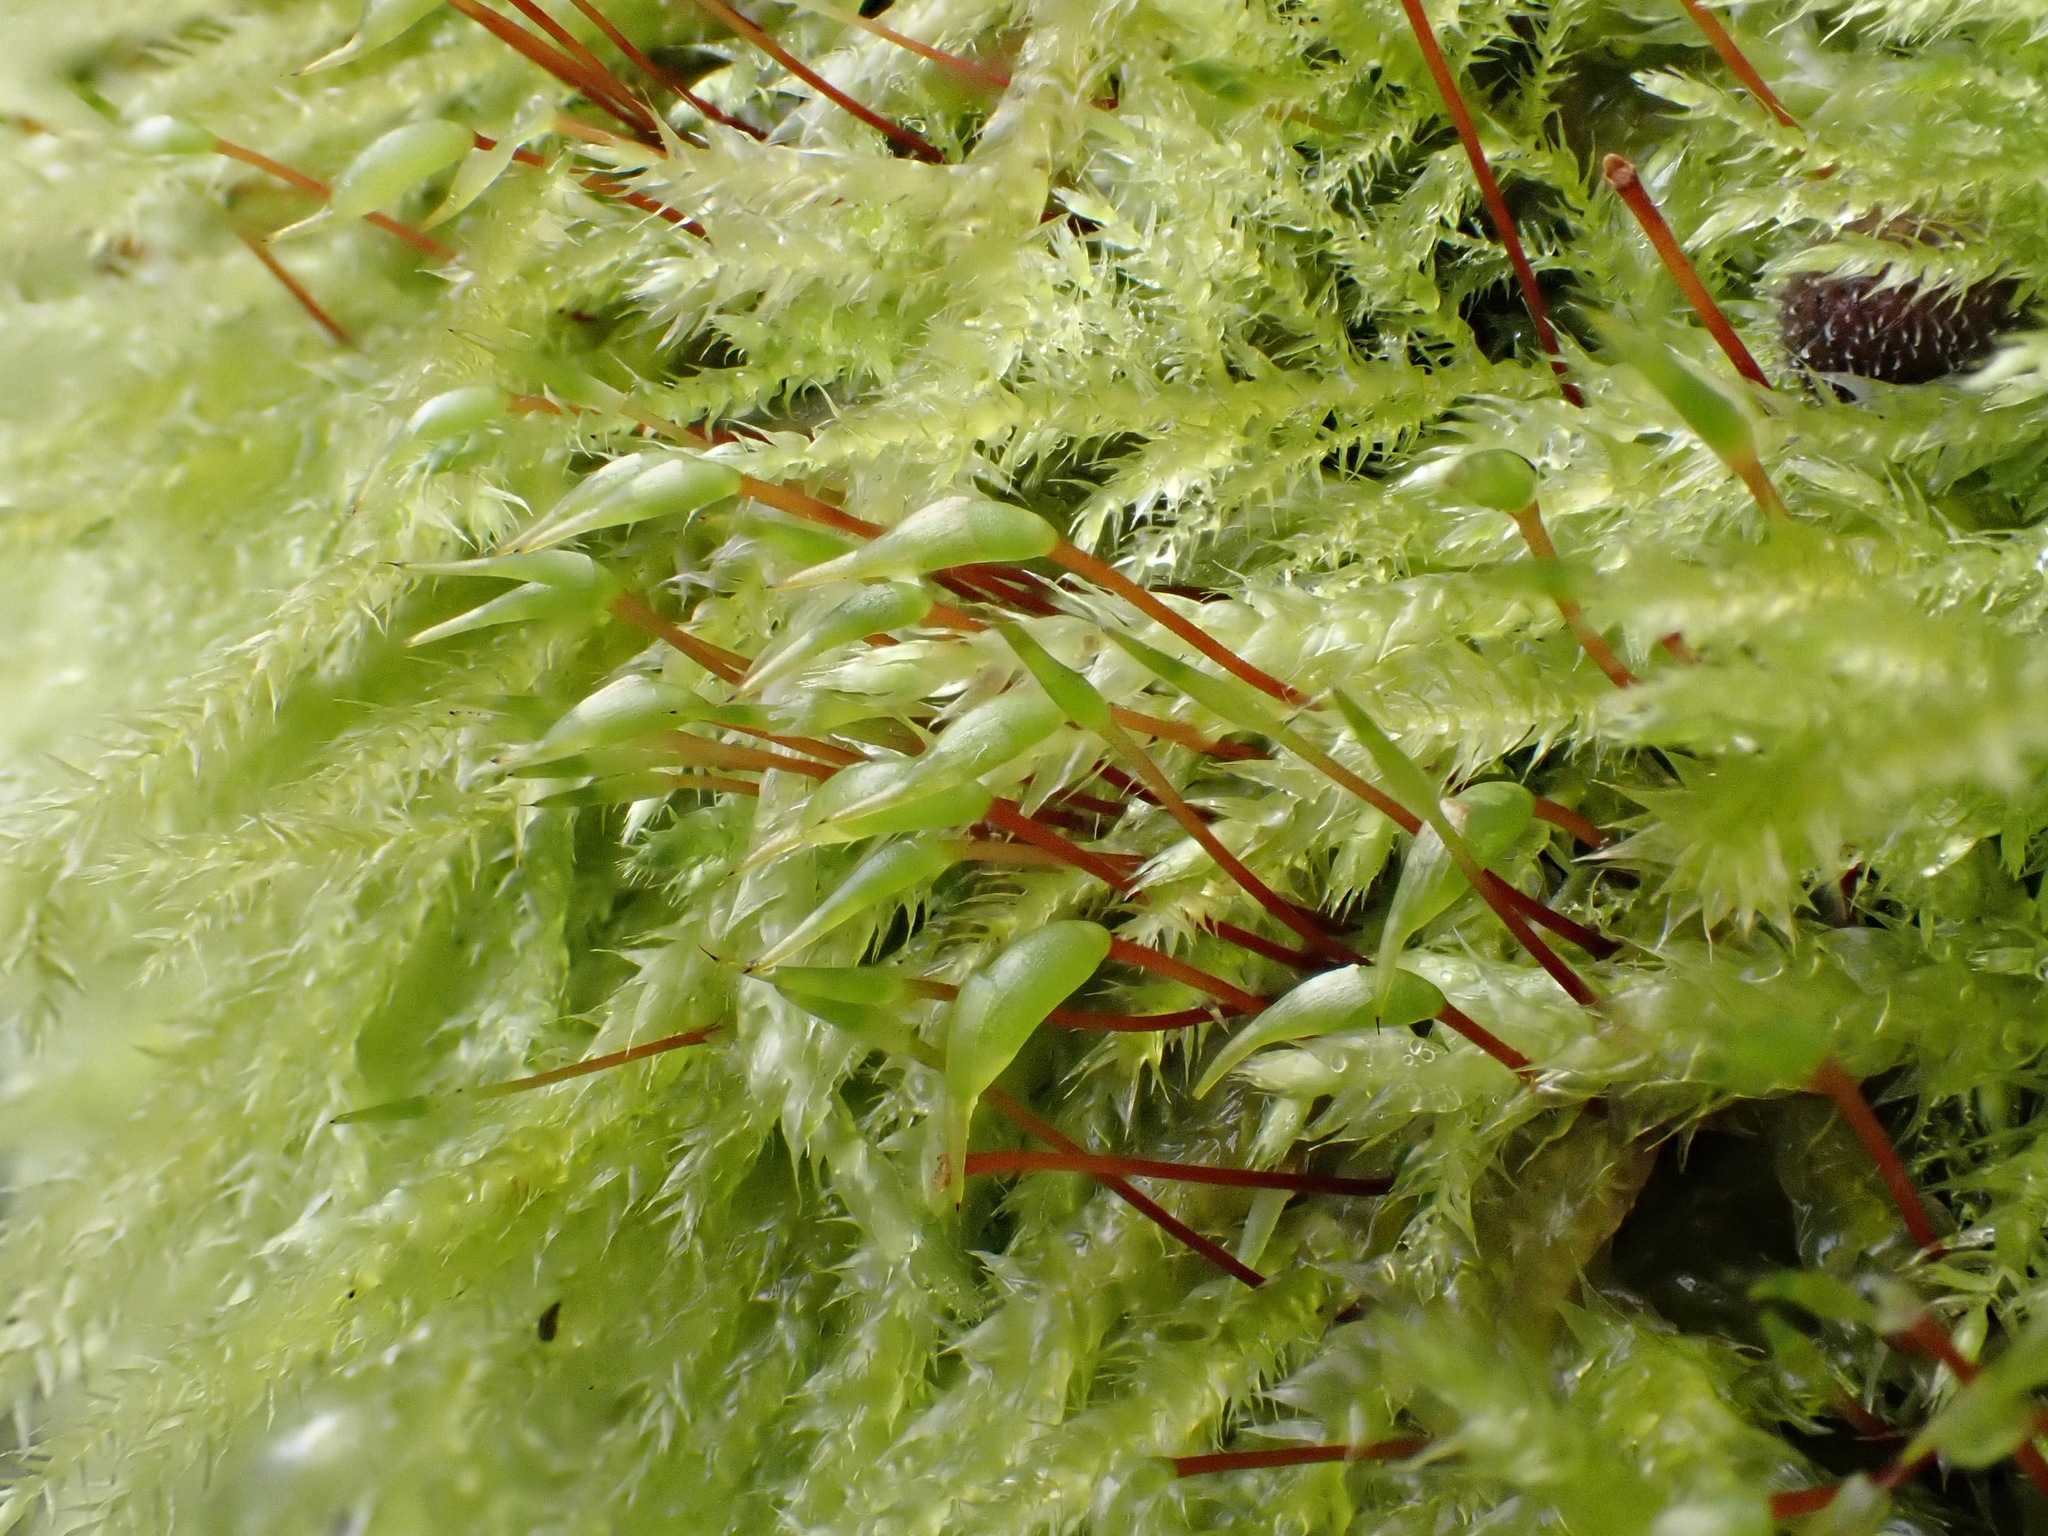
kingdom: Plantae
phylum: Bryophyta
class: Bryopsida
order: Hypnales
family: Brachytheciaceae
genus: Rhynchostegium
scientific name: Rhynchostegium confertum
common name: Clustered feather-moss
